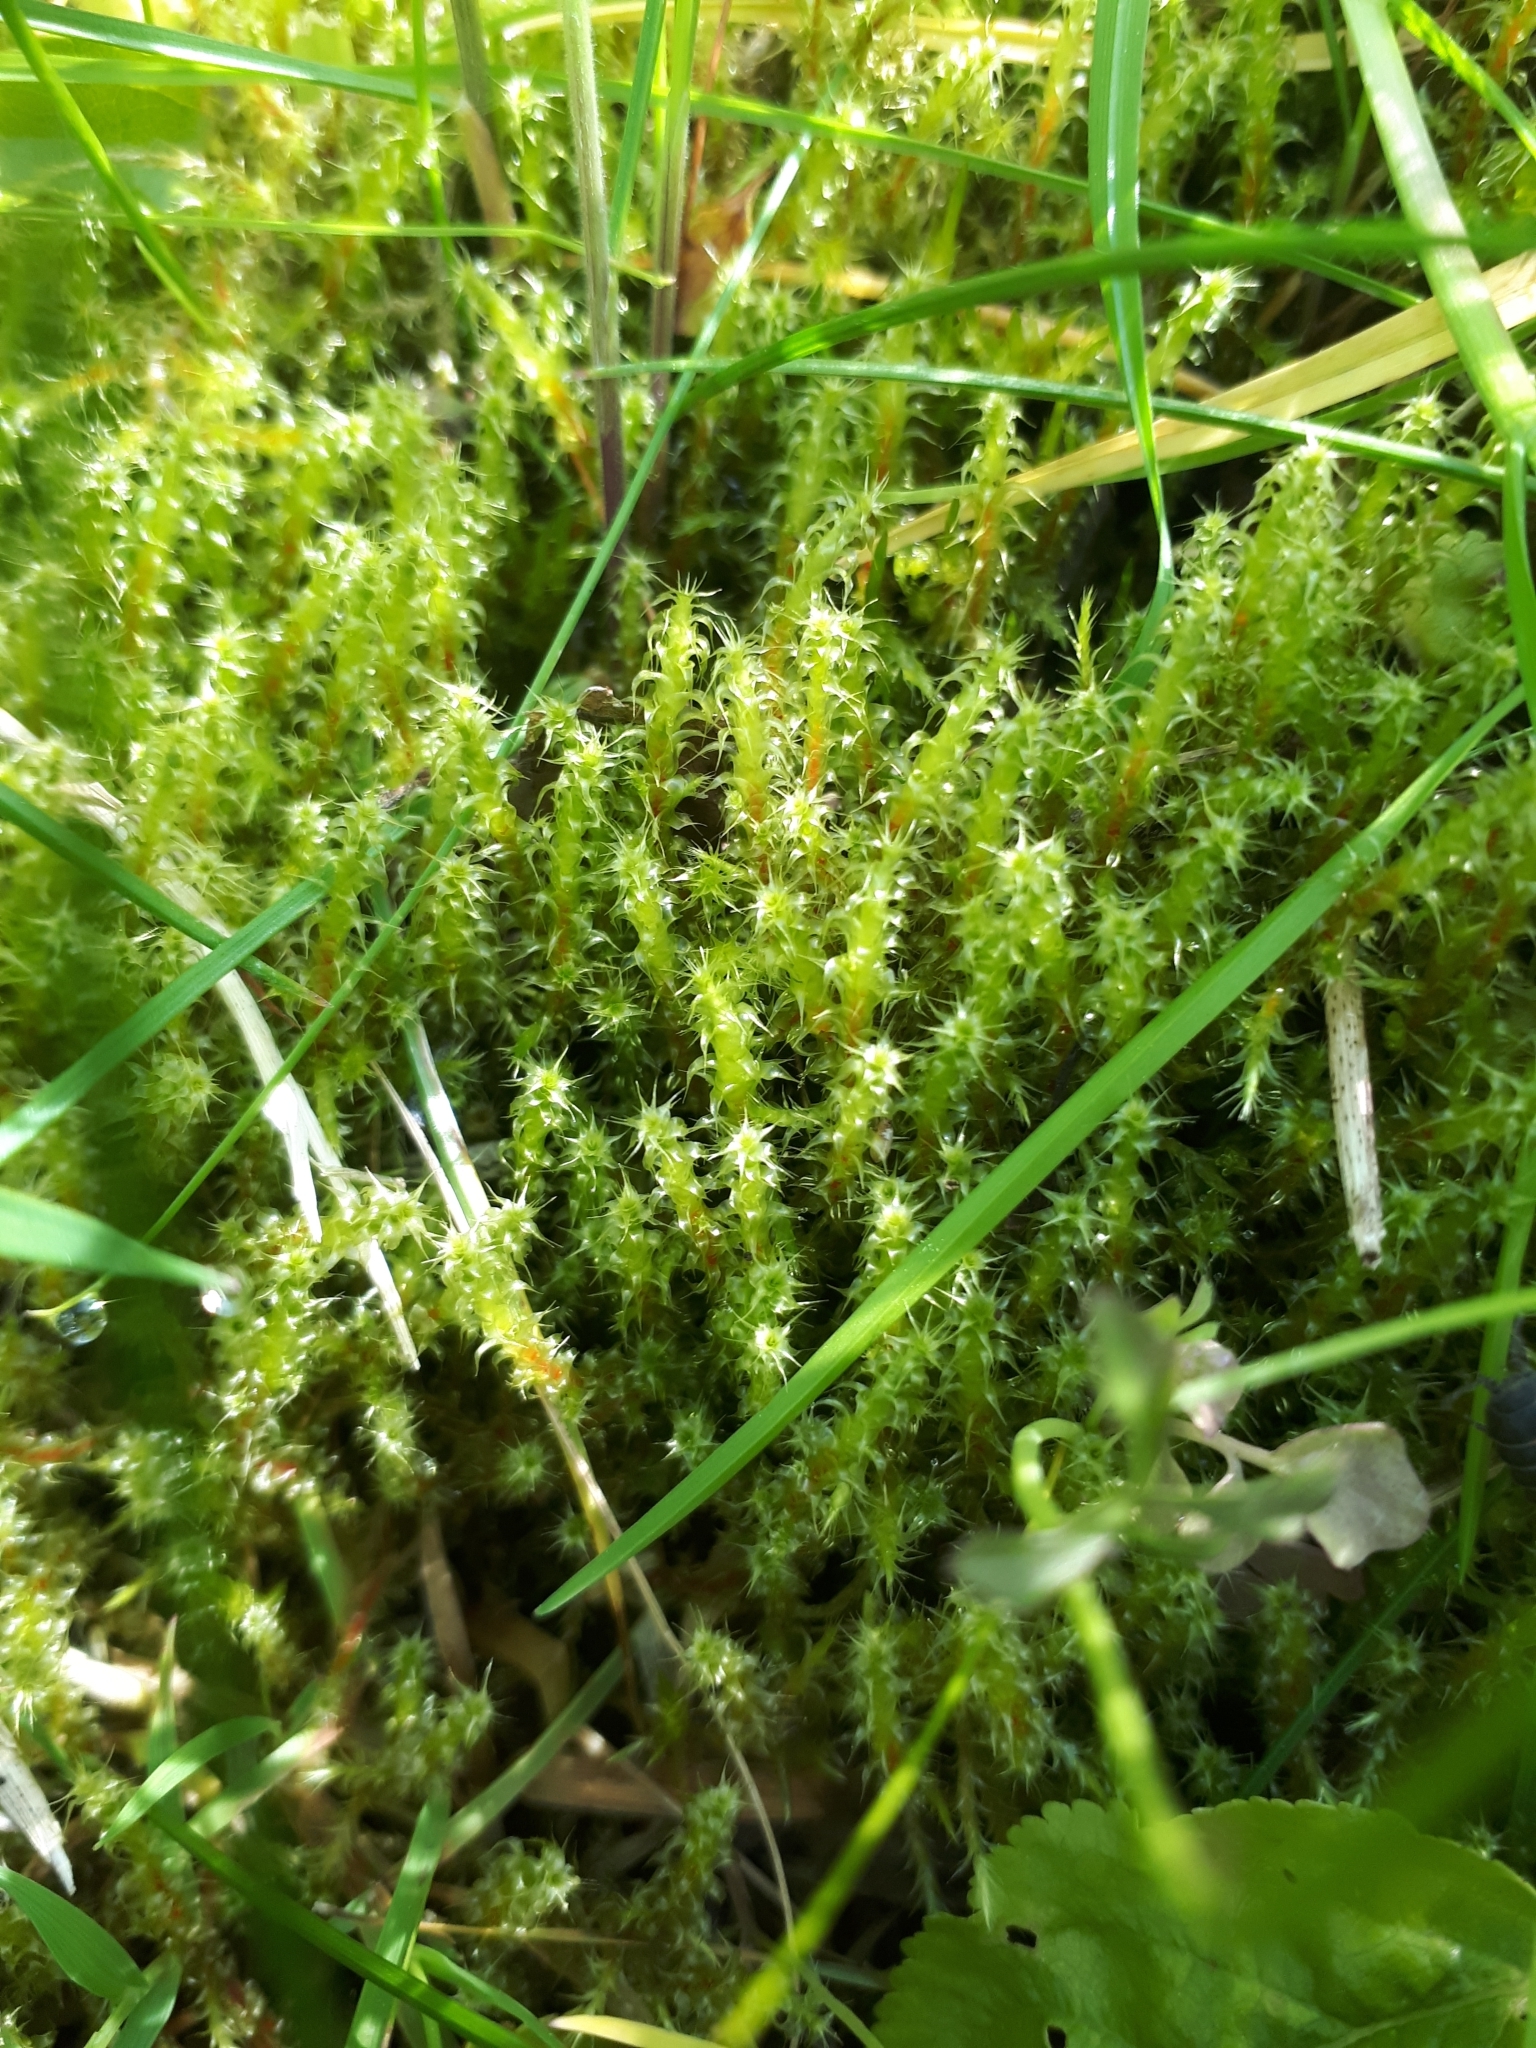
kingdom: Plantae
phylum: Bryophyta
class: Bryopsida
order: Hypnales
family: Hylocomiaceae
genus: Rhytidiadelphus
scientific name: Rhytidiadelphus squarrosus
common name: Springy turf-moss
